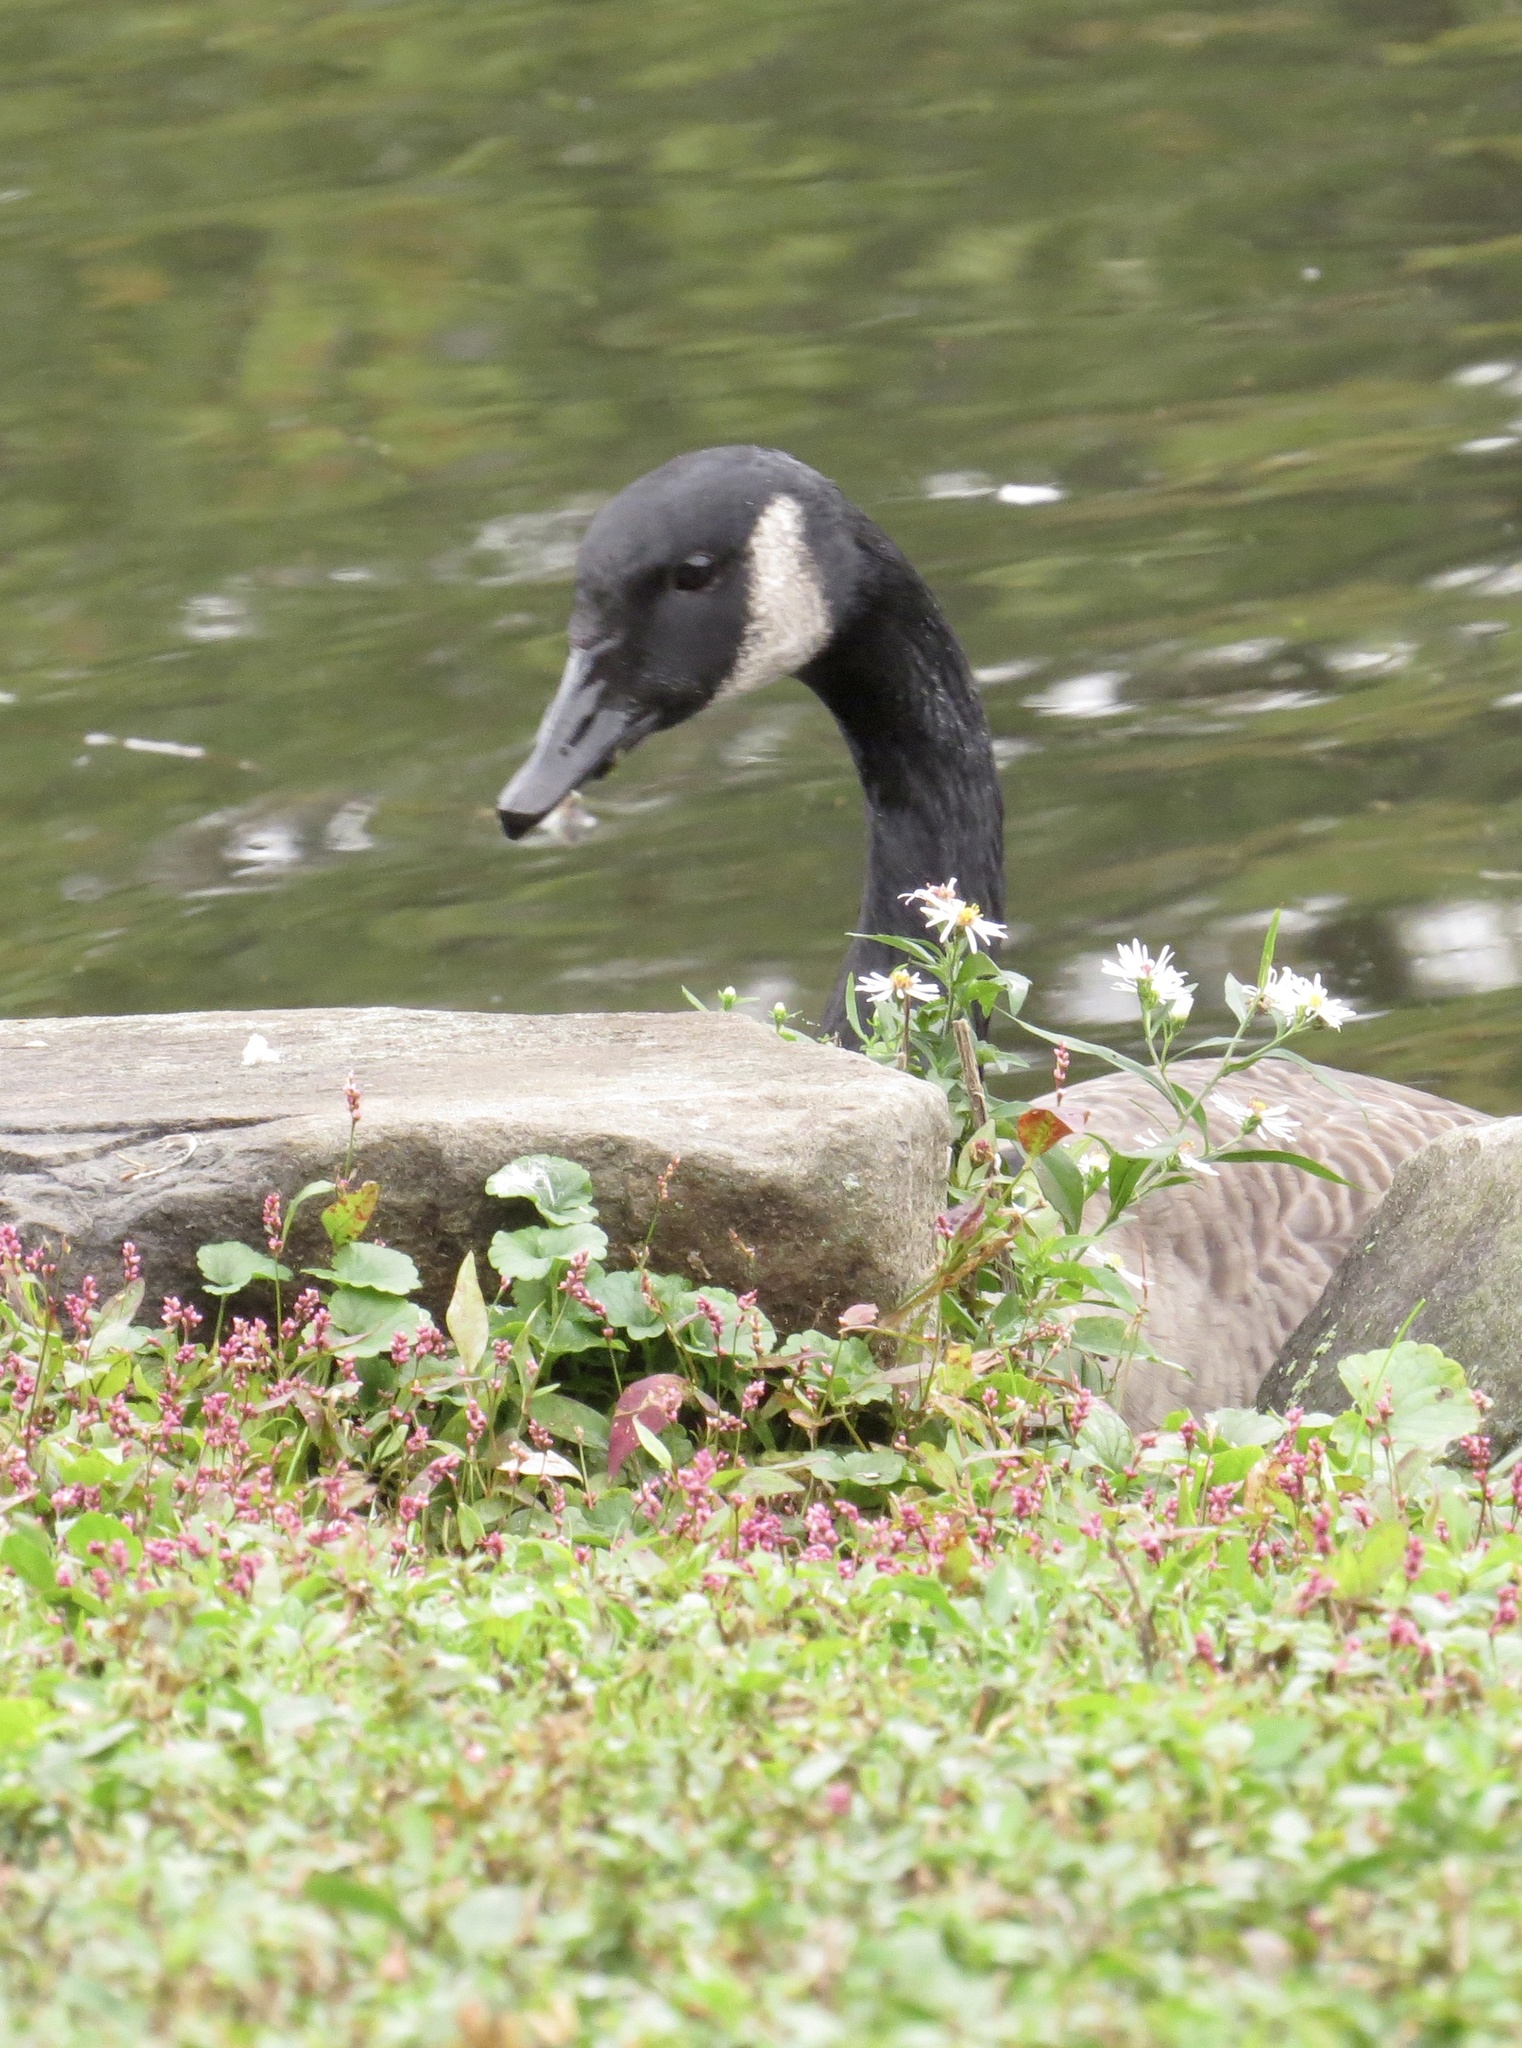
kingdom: Animalia
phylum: Chordata
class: Aves
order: Anseriformes
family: Anatidae
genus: Branta
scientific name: Branta canadensis
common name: Canada goose
